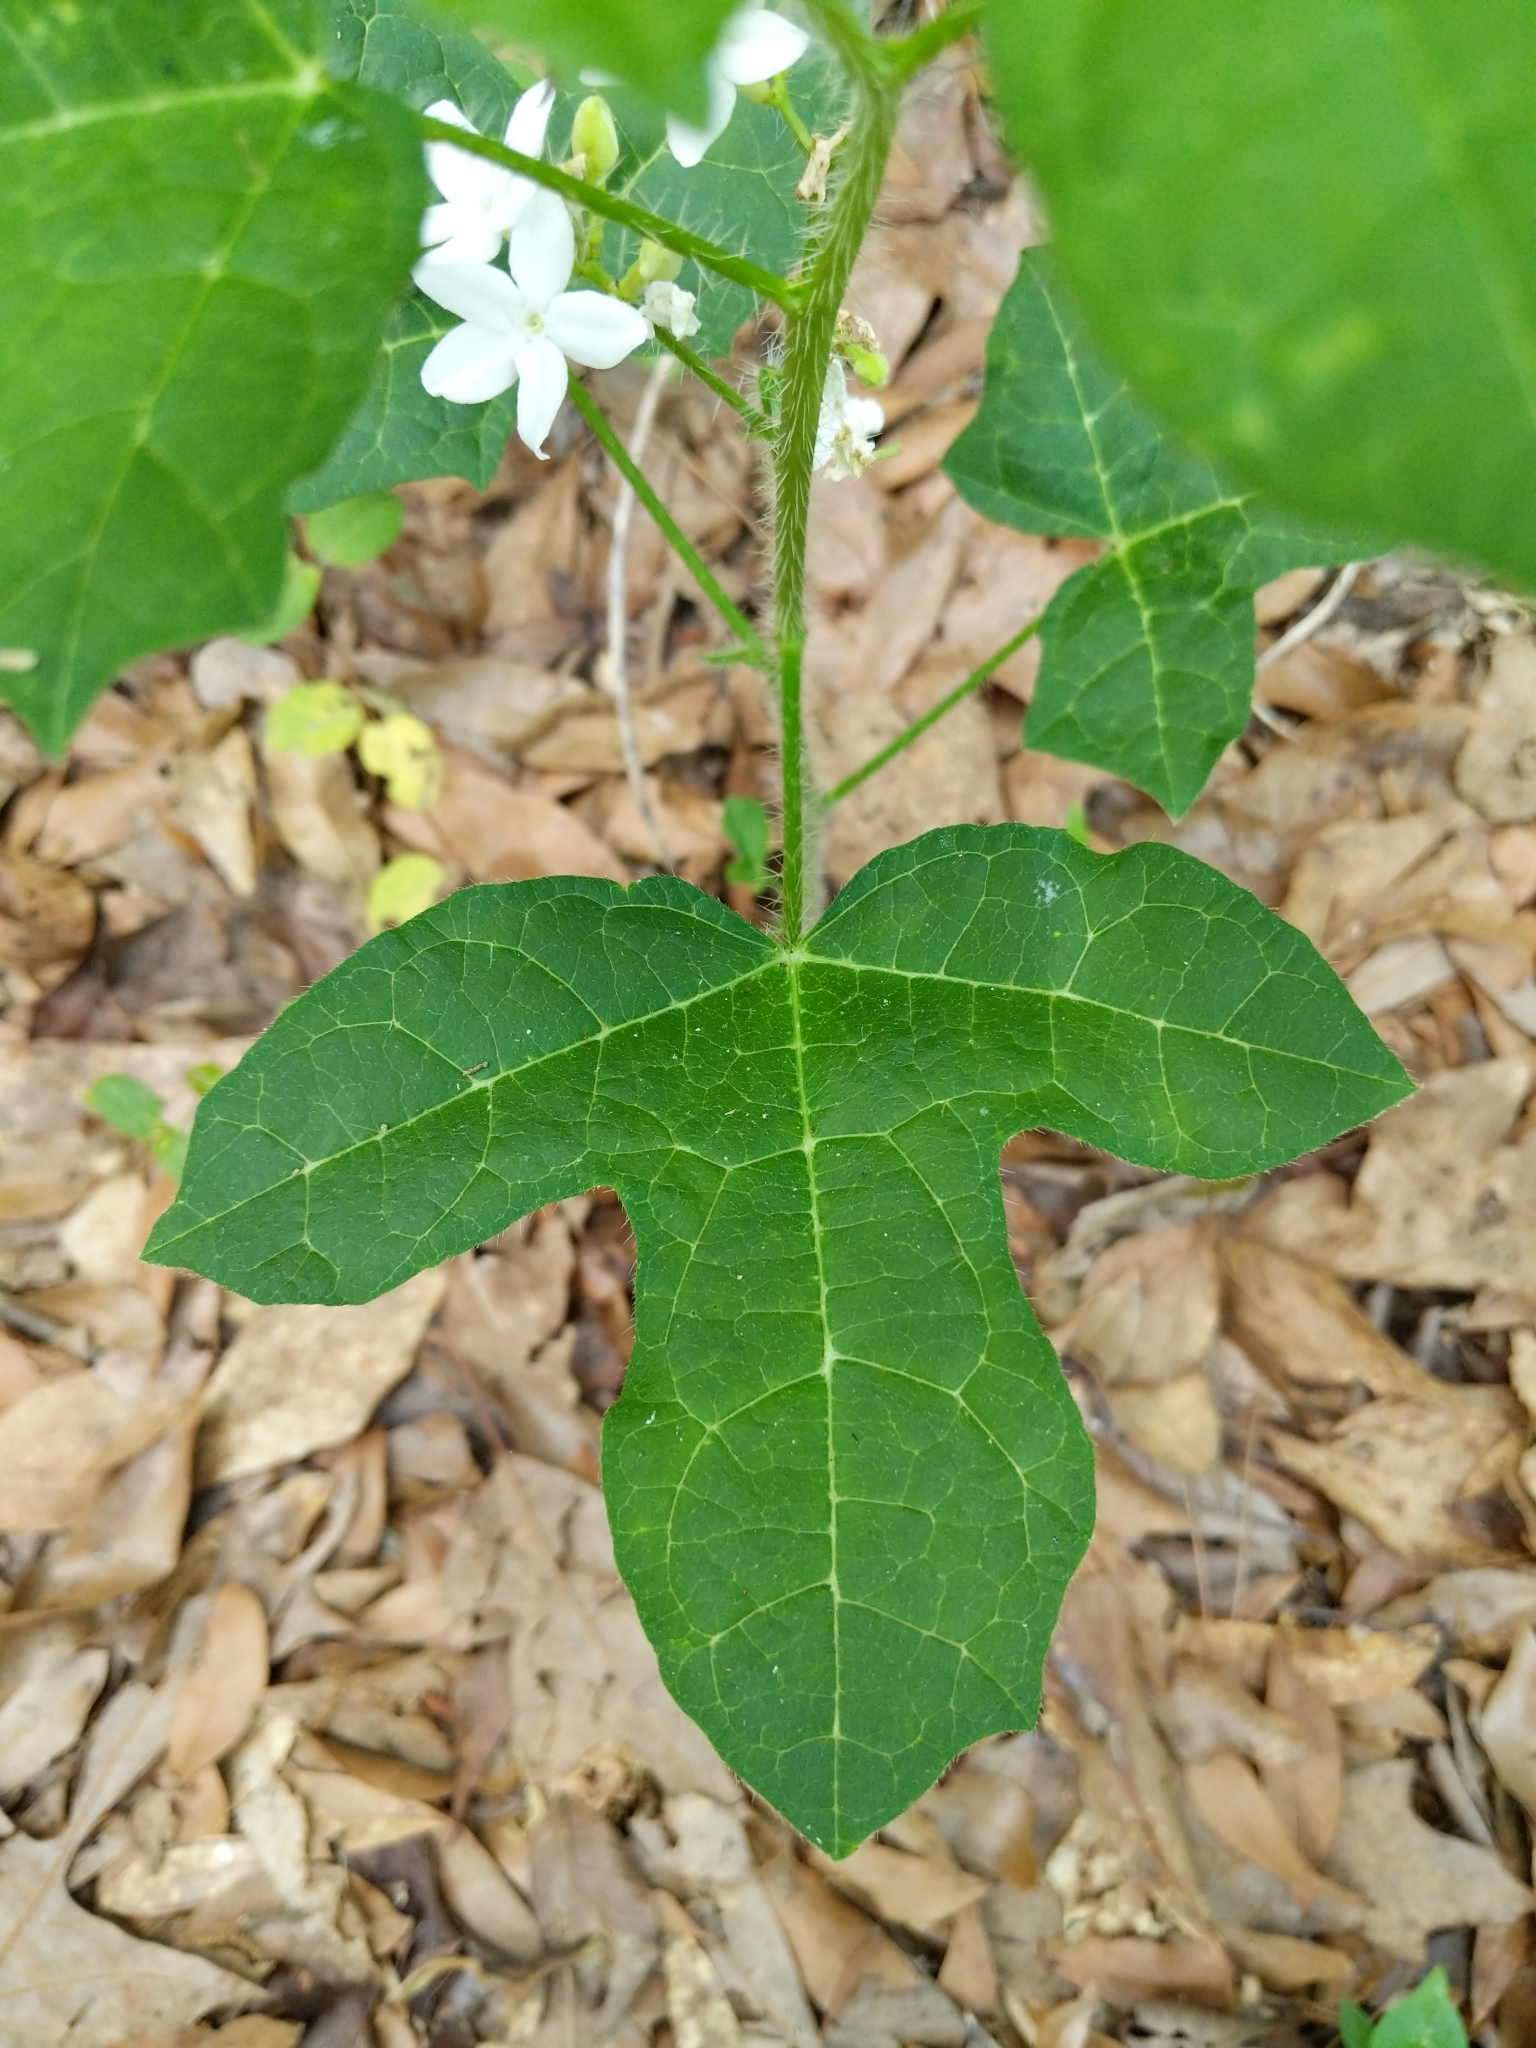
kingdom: Plantae
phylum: Tracheophyta
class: Magnoliopsida
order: Malpighiales
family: Euphorbiaceae
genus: Cnidoscolus
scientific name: Cnidoscolus stimulosus
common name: Bull-nettle
